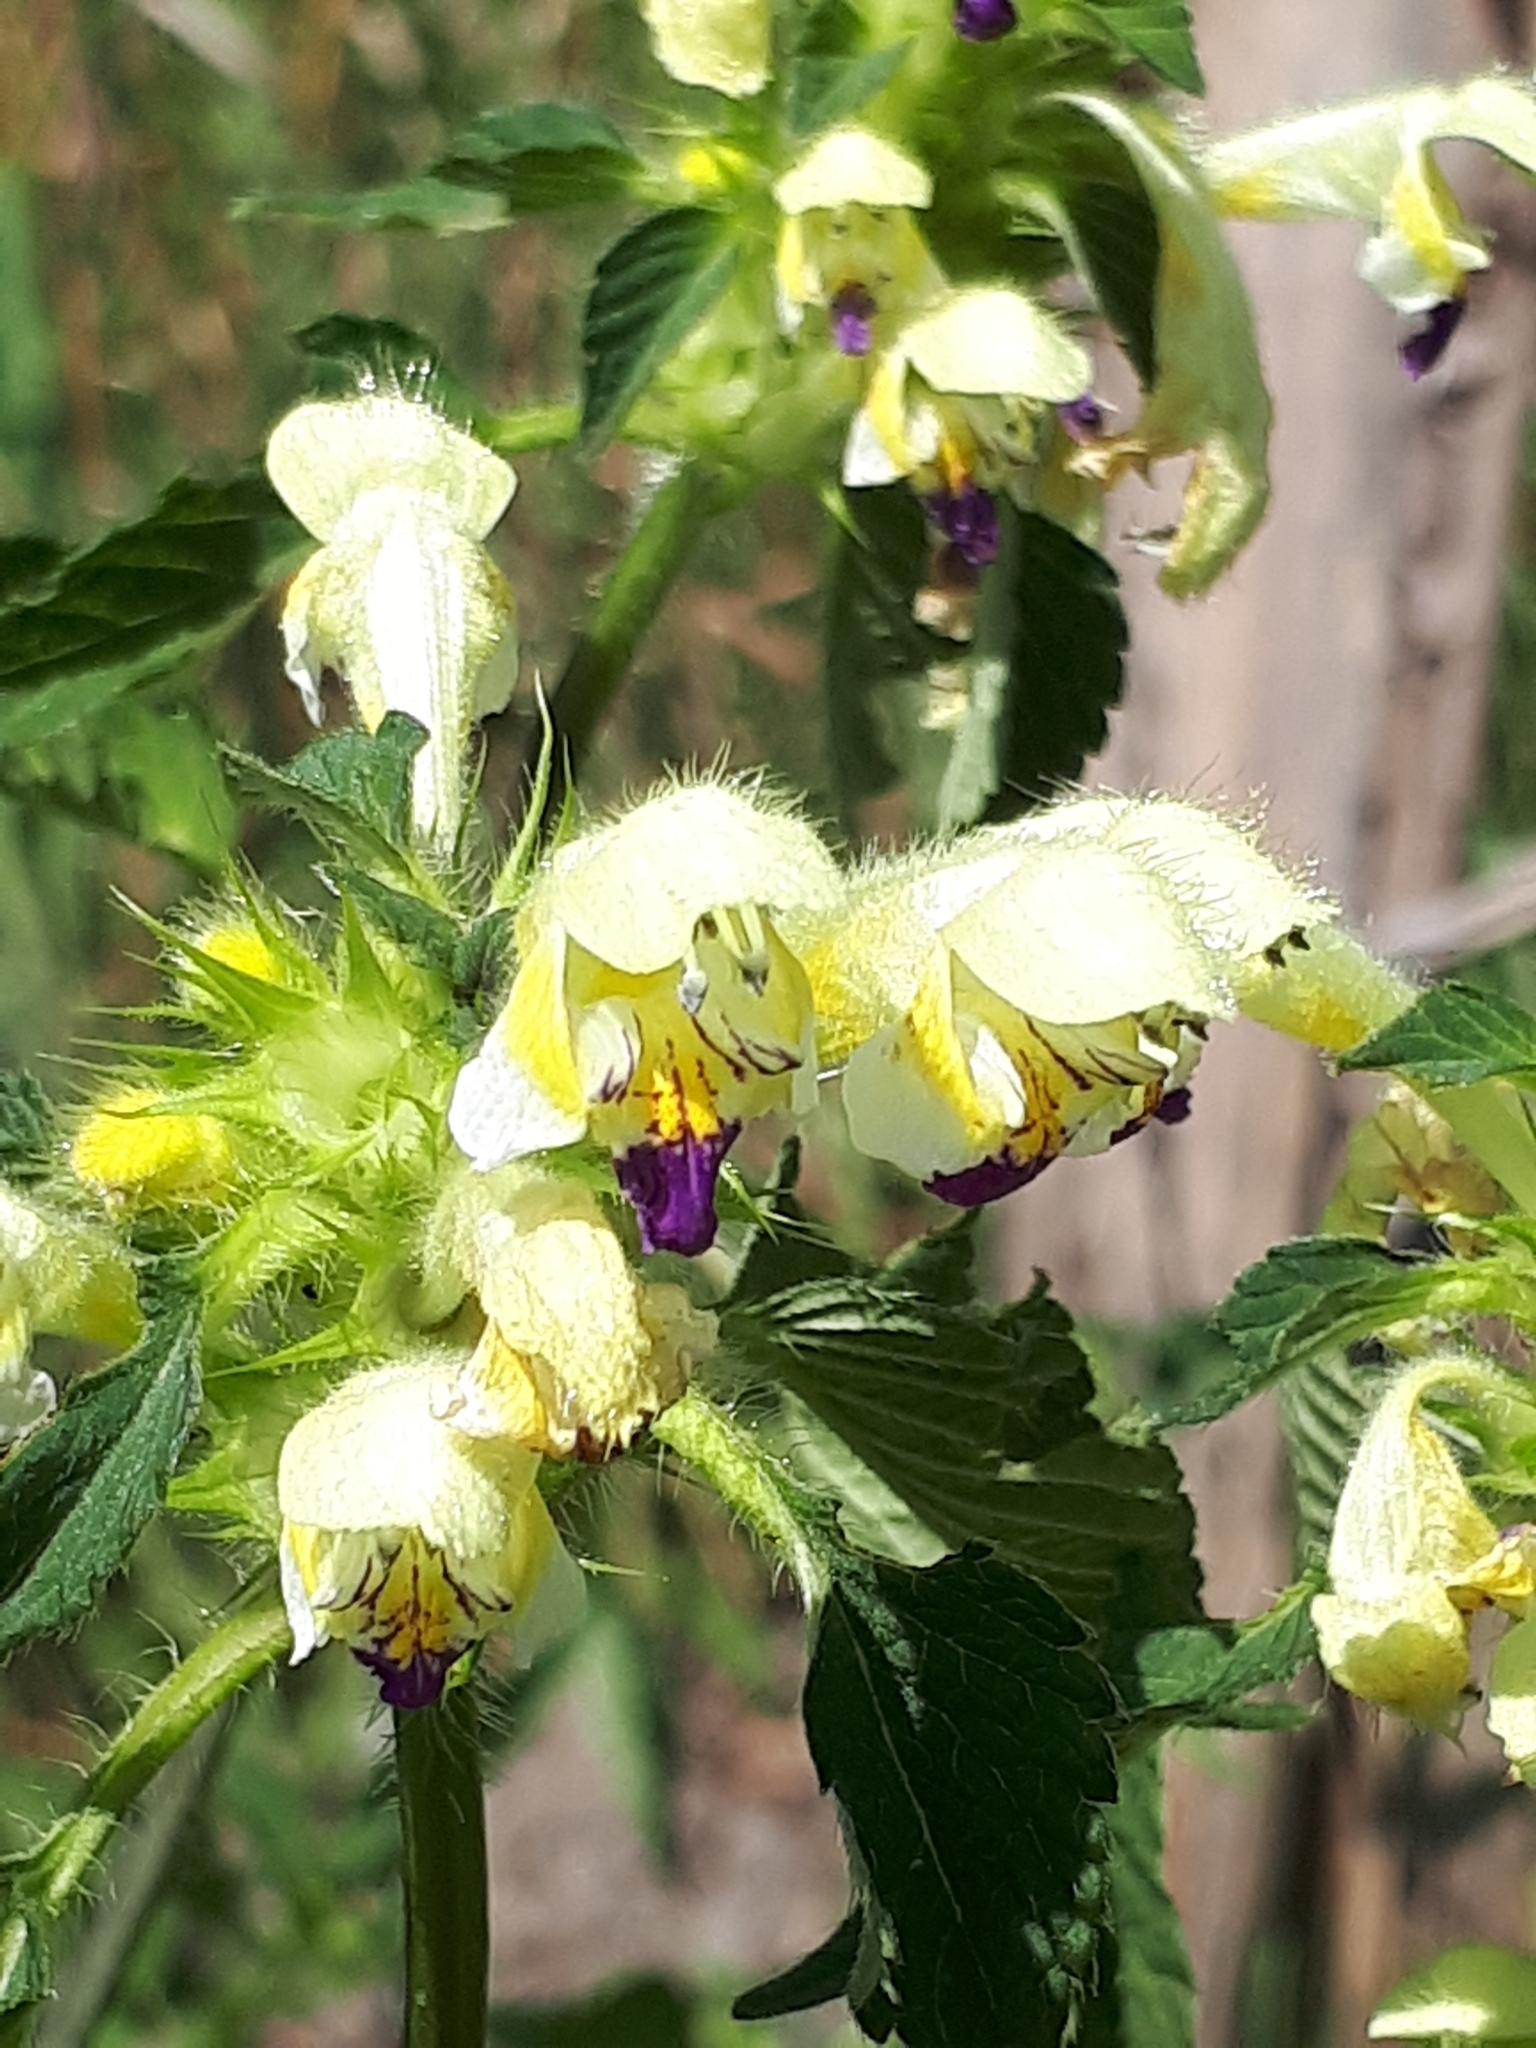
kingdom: Plantae
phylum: Tracheophyta
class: Magnoliopsida
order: Lamiales
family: Lamiaceae
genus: Galeopsis
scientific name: Galeopsis speciosa
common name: Large-flowered hemp-nettle
